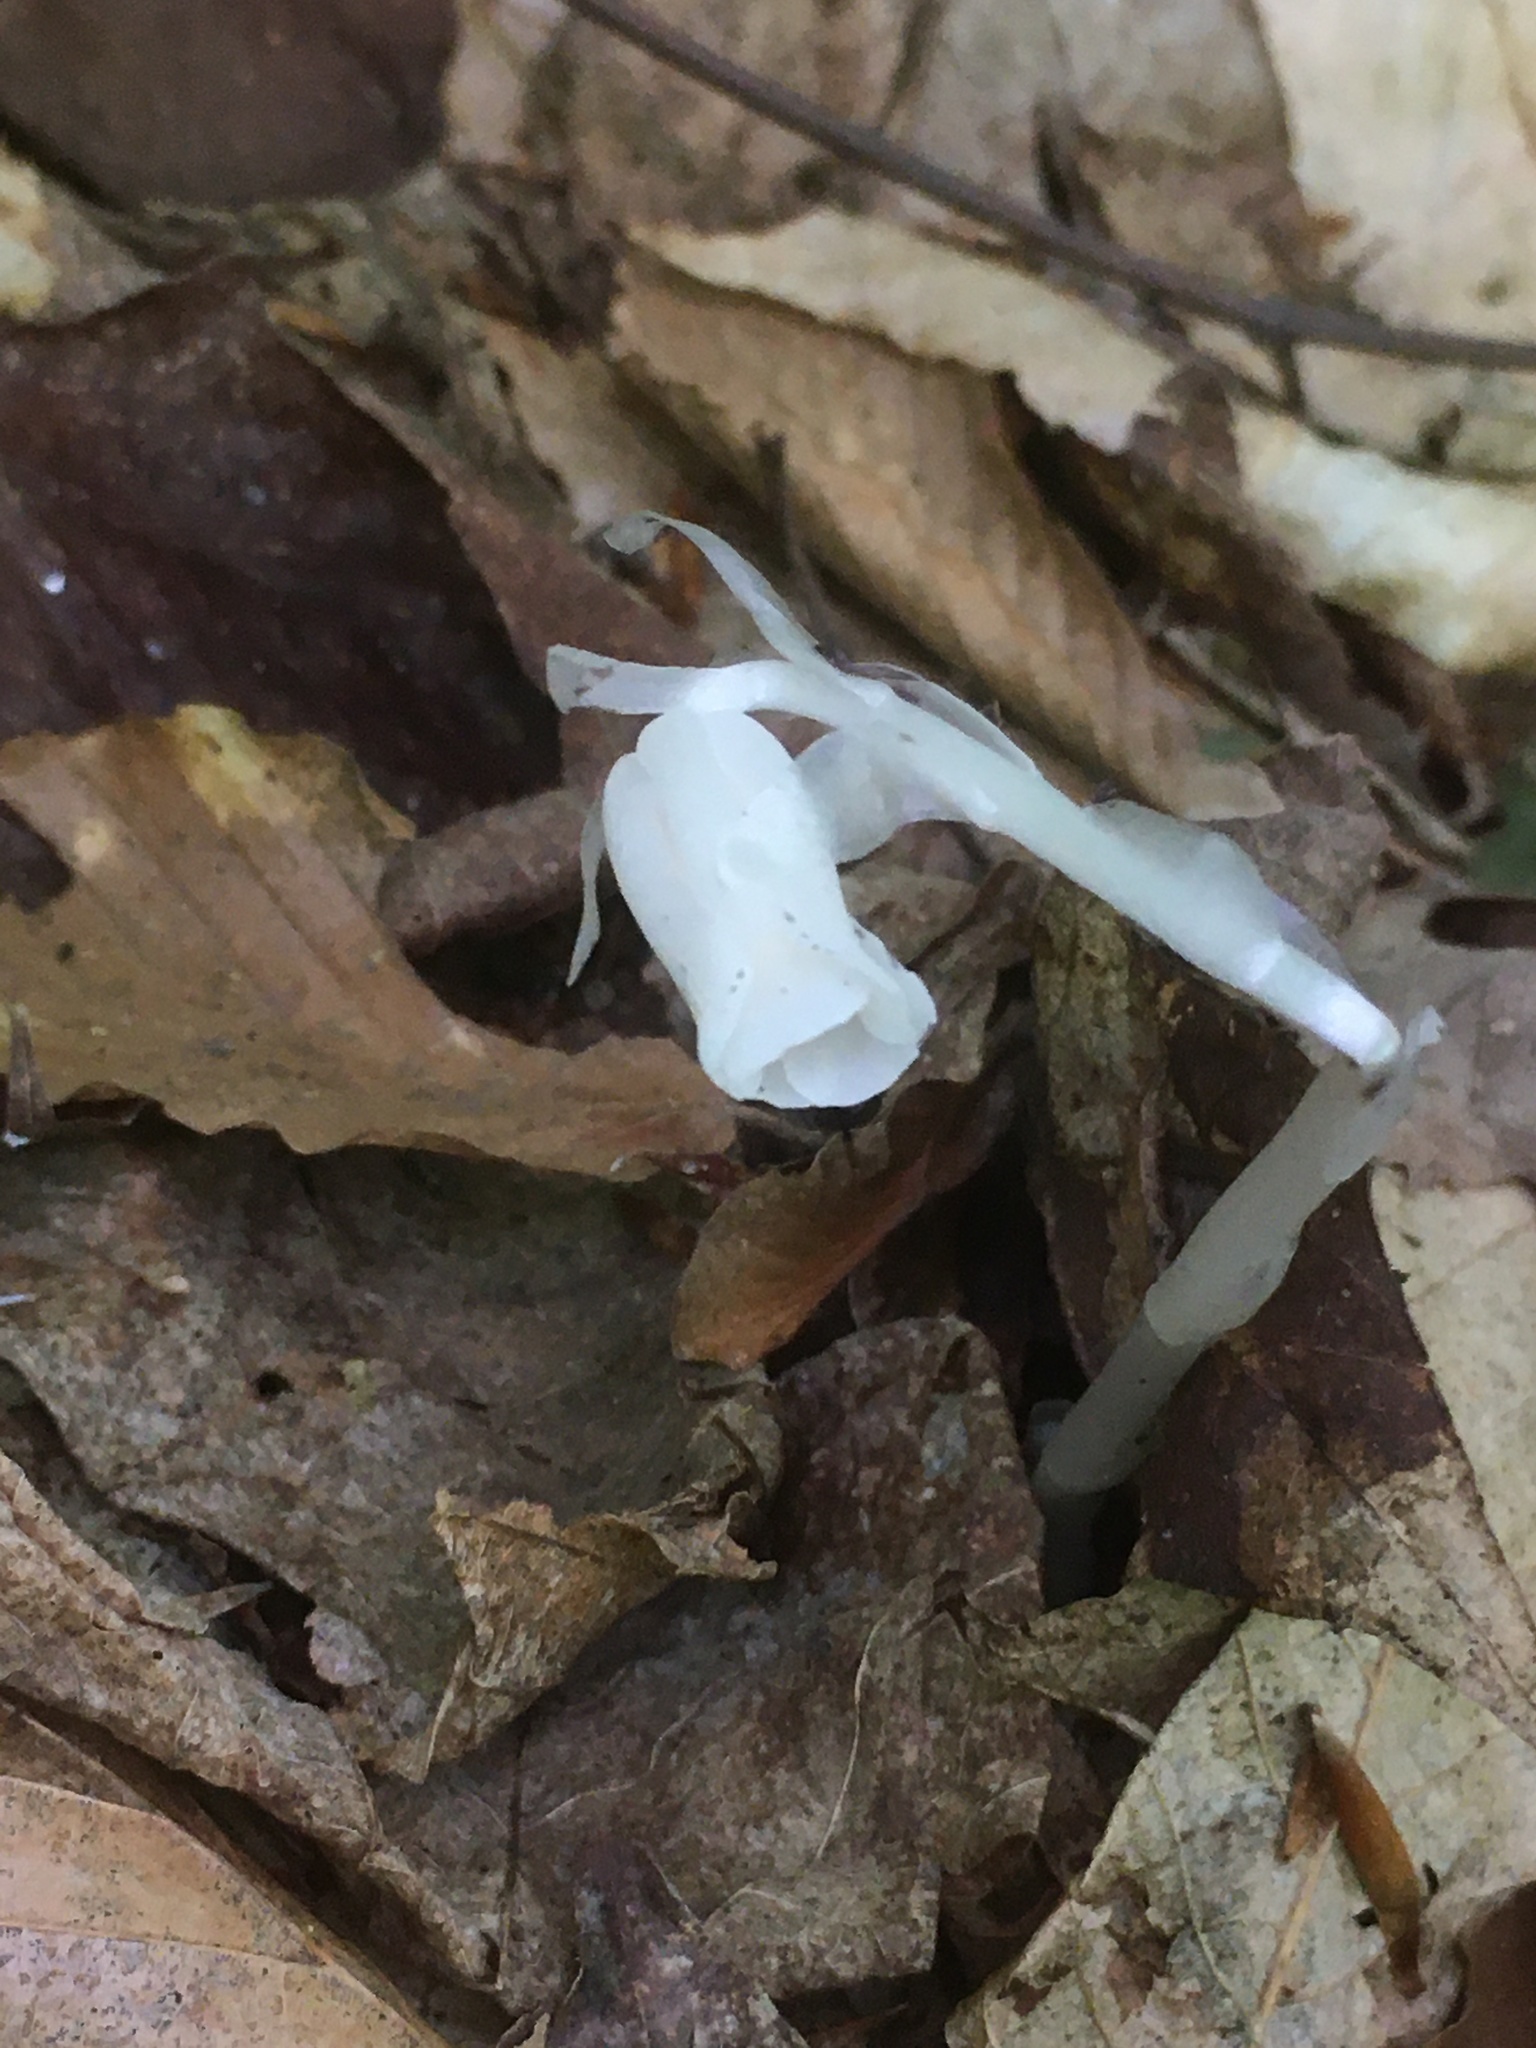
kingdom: Plantae
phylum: Tracheophyta
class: Magnoliopsida
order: Ericales
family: Ericaceae
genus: Monotropa
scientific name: Monotropa uniflora
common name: Convulsion root
